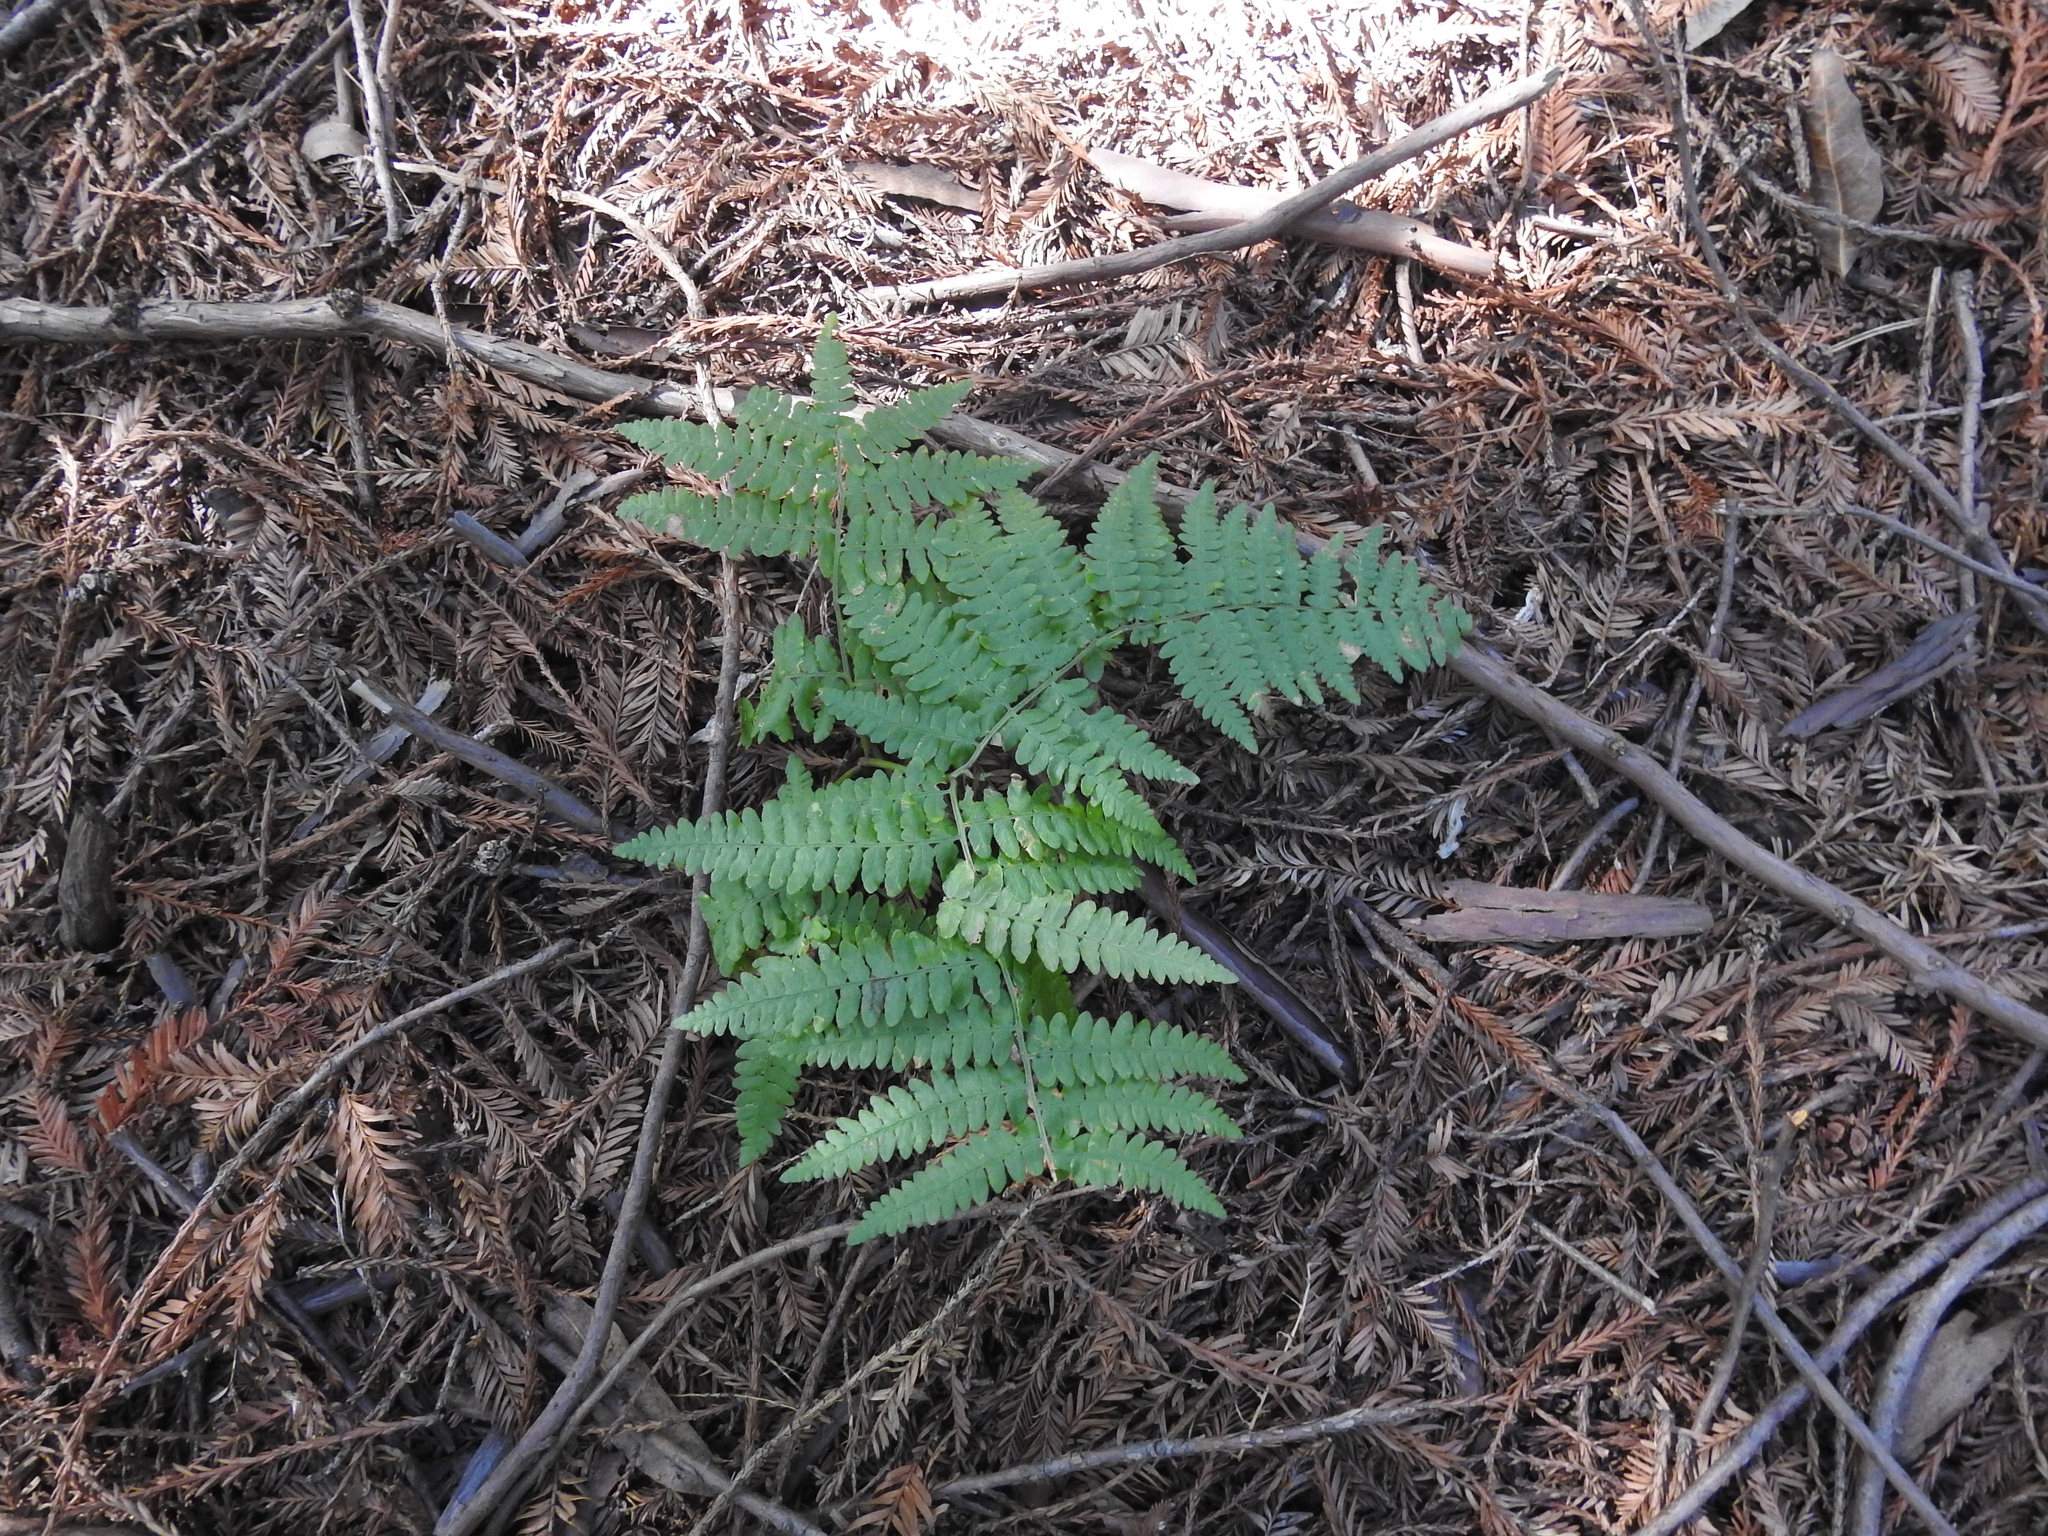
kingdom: Plantae
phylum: Tracheophyta
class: Polypodiopsida
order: Polypodiales
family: Dennstaedtiaceae
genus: Pteridium
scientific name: Pteridium aquilinum
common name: Bracken
